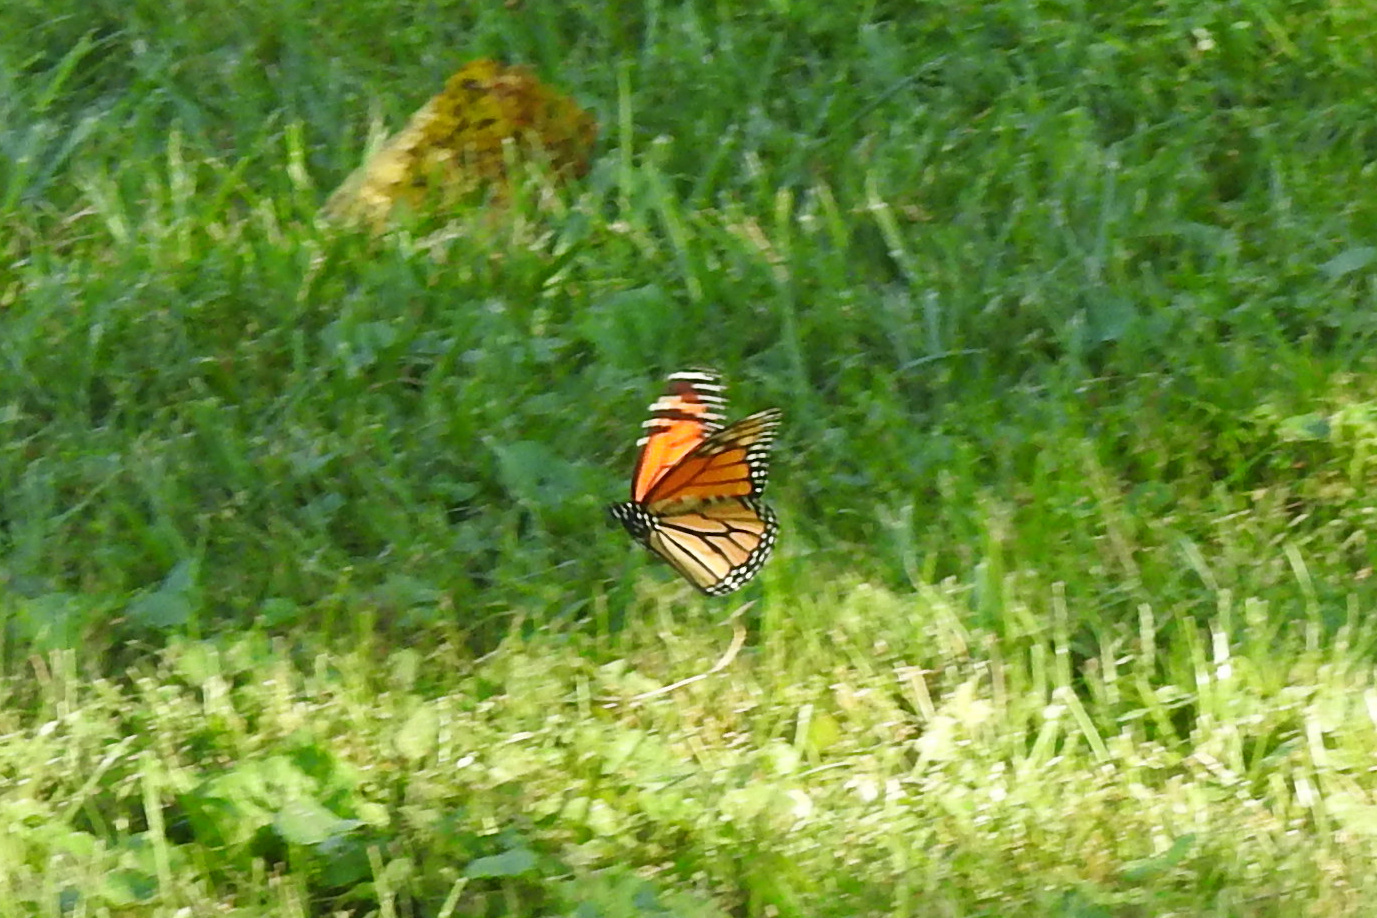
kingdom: Animalia
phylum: Arthropoda
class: Insecta
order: Lepidoptera
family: Nymphalidae
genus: Danaus
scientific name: Danaus plexippus
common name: Monarch
